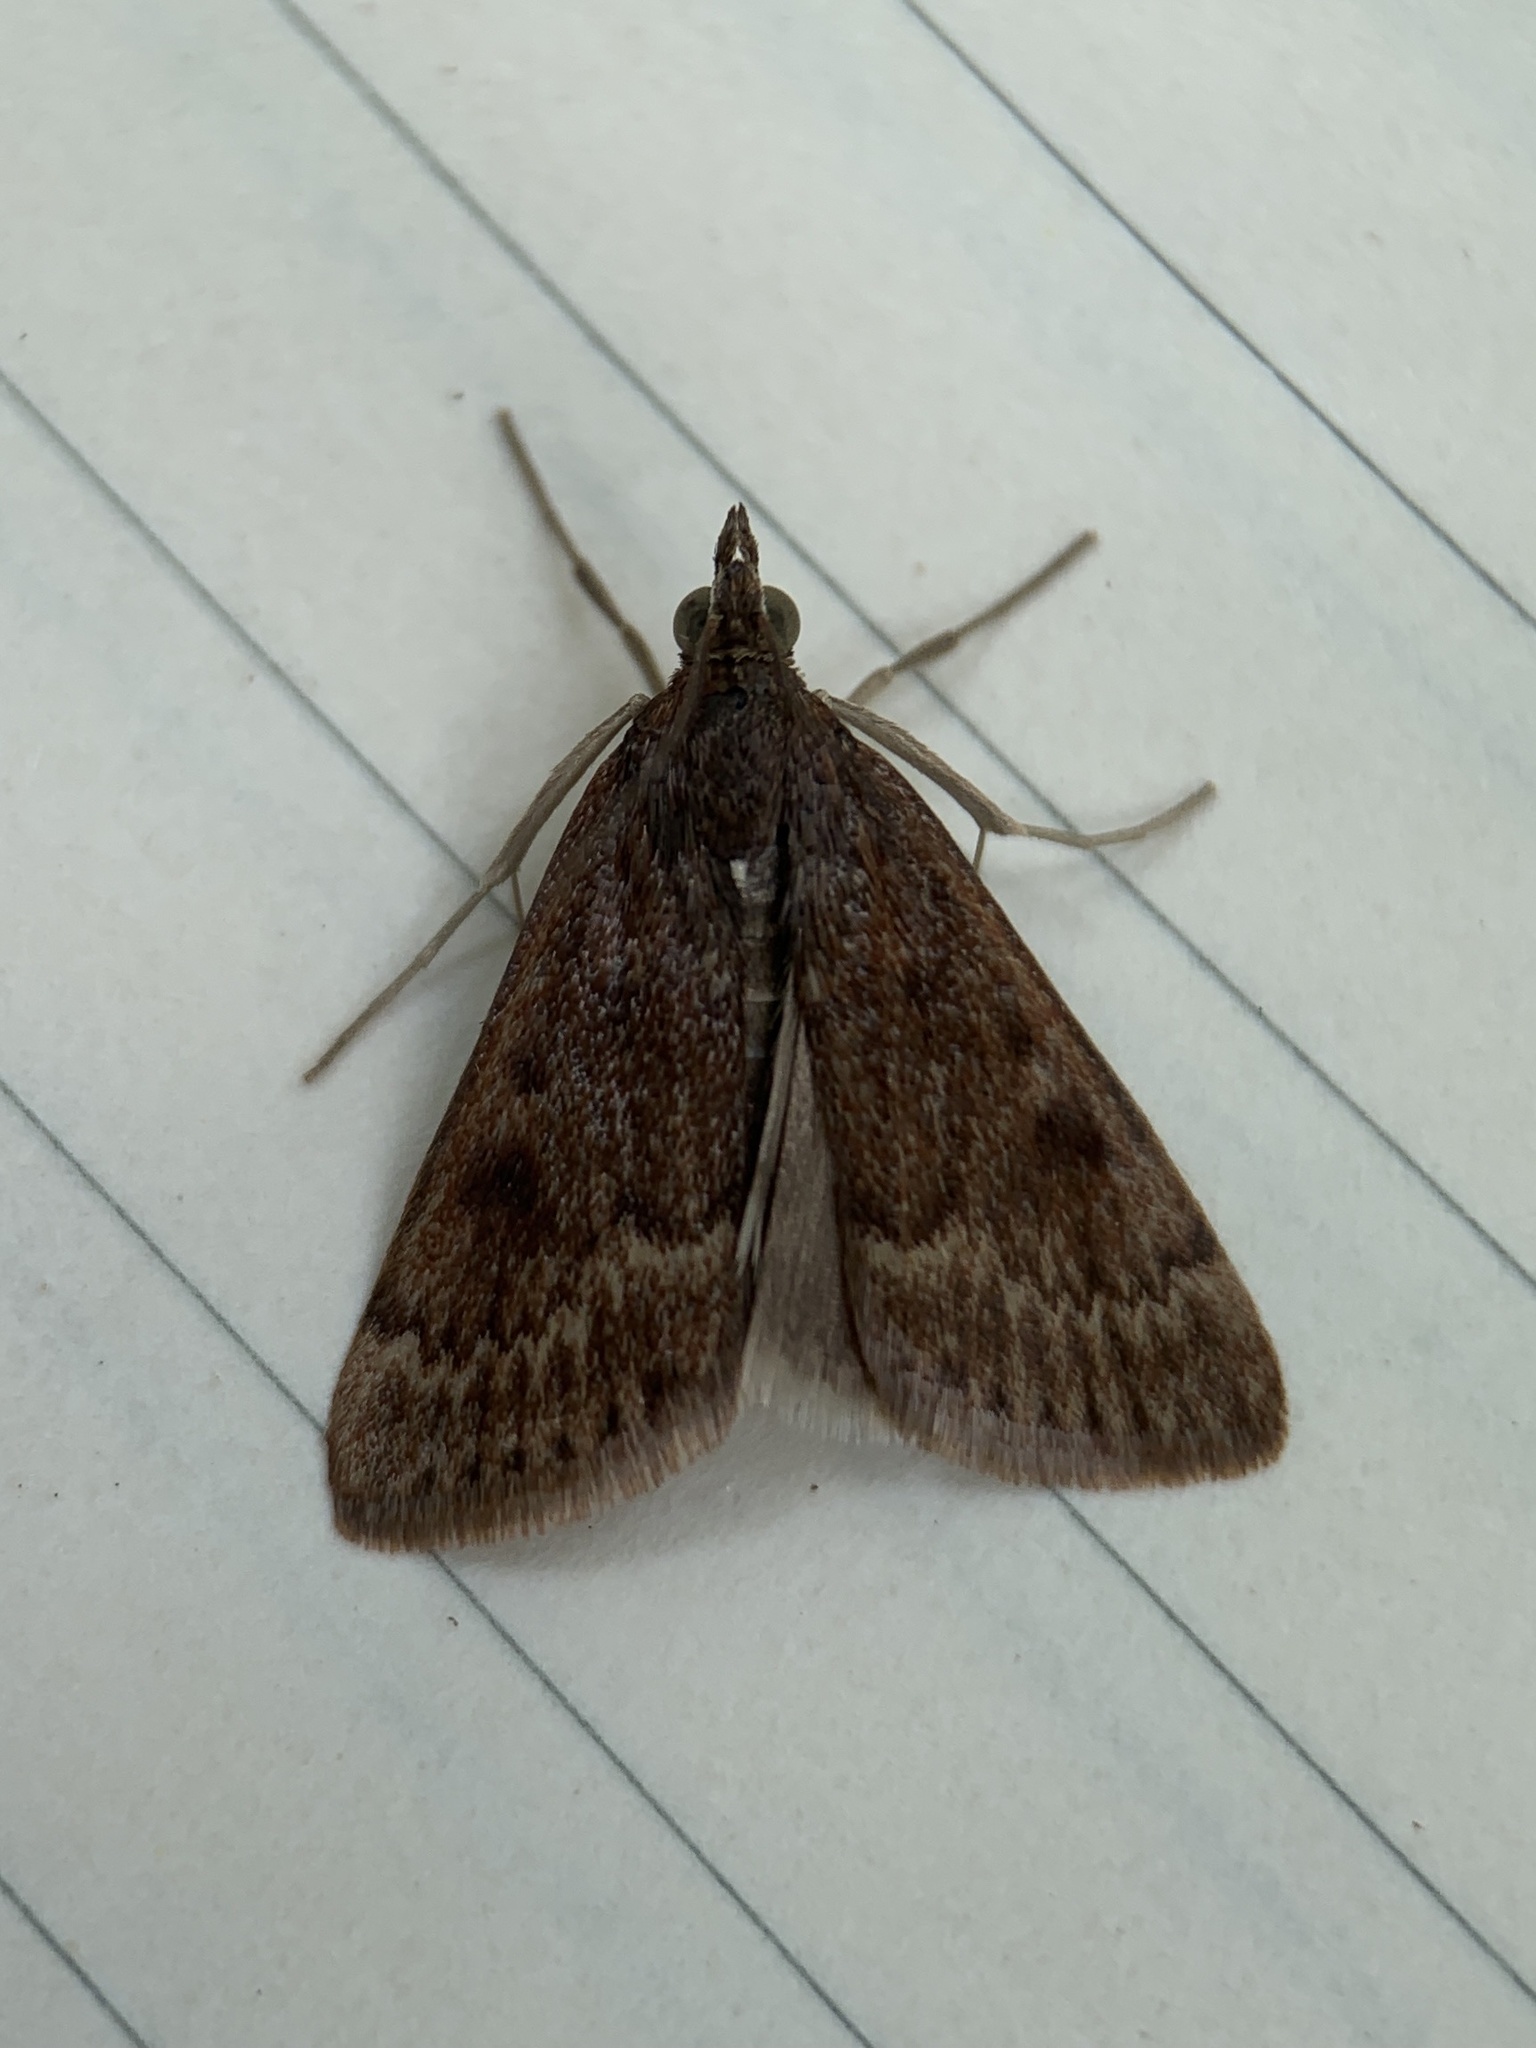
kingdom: Animalia
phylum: Arthropoda
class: Insecta
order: Lepidoptera
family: Crambidae
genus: Achyra
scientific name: Achyra rantalis
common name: Garden webworm
